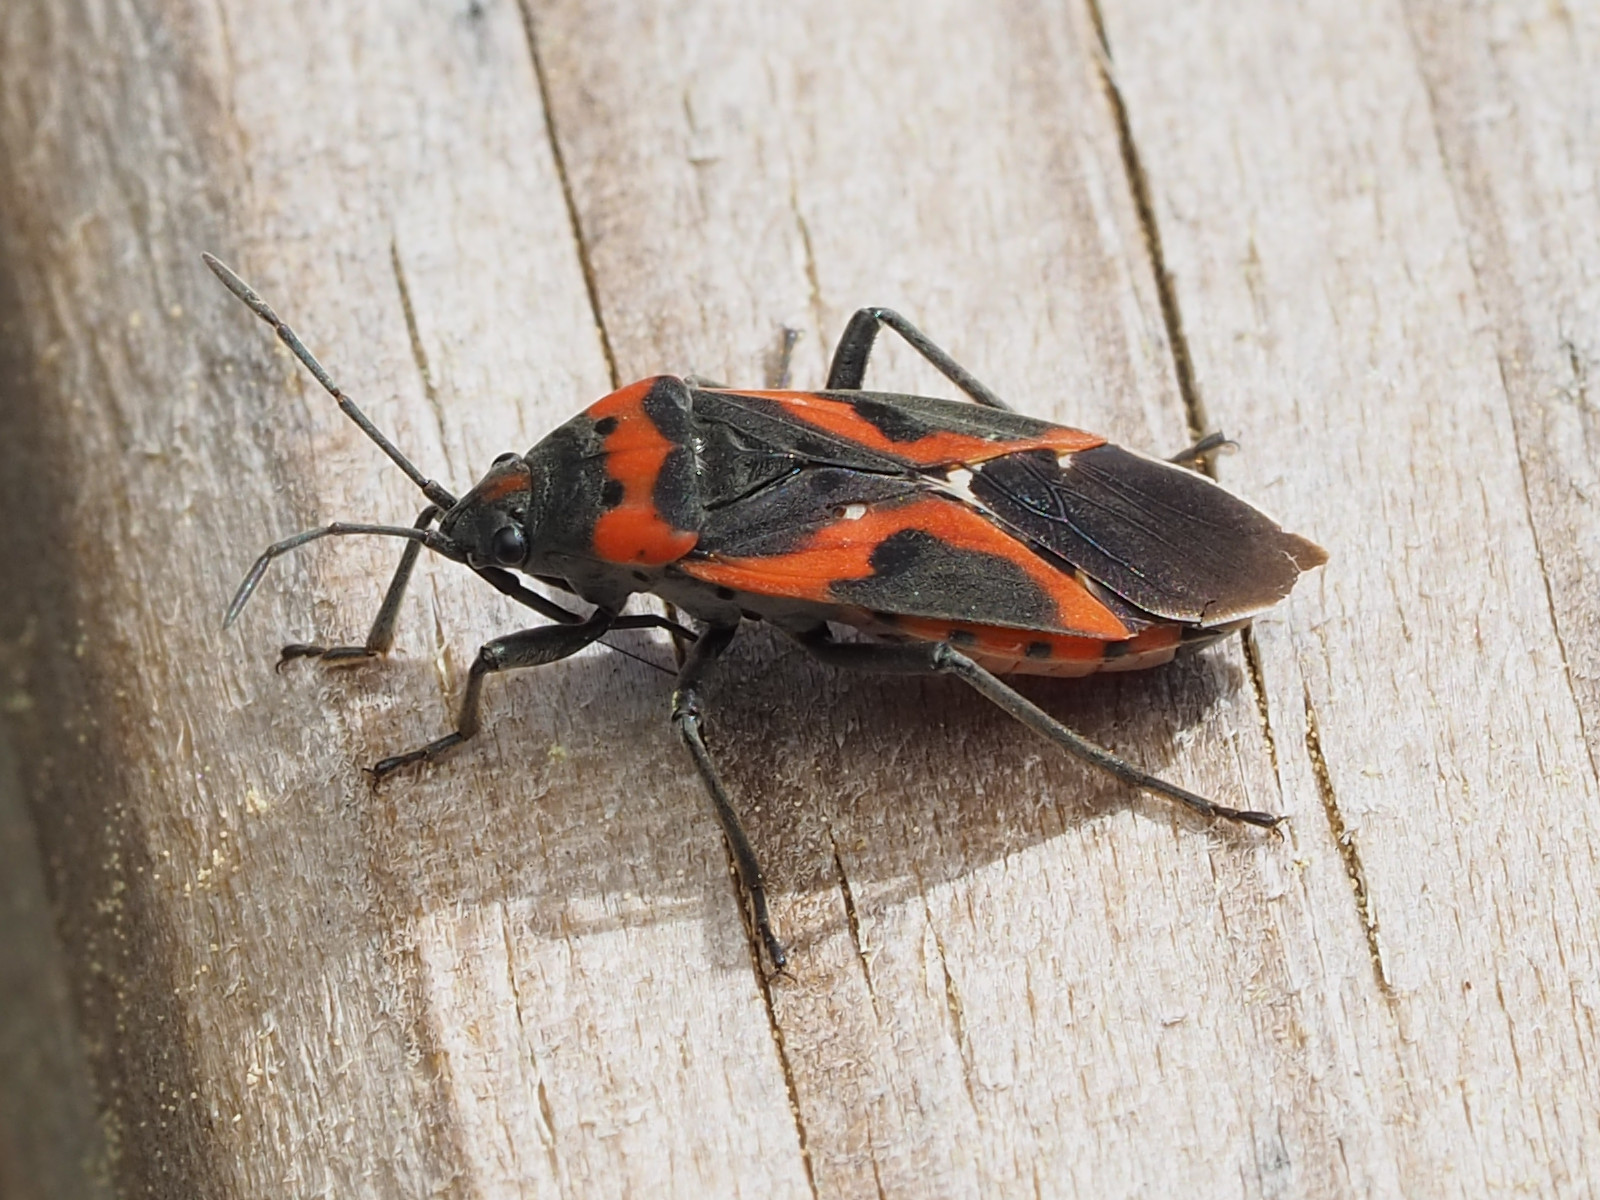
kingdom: Animalia
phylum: Arthropoda
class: Insecta
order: Hemiptera
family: Lygaeidae
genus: Lygaeus
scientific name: Lygaeus kalmii
